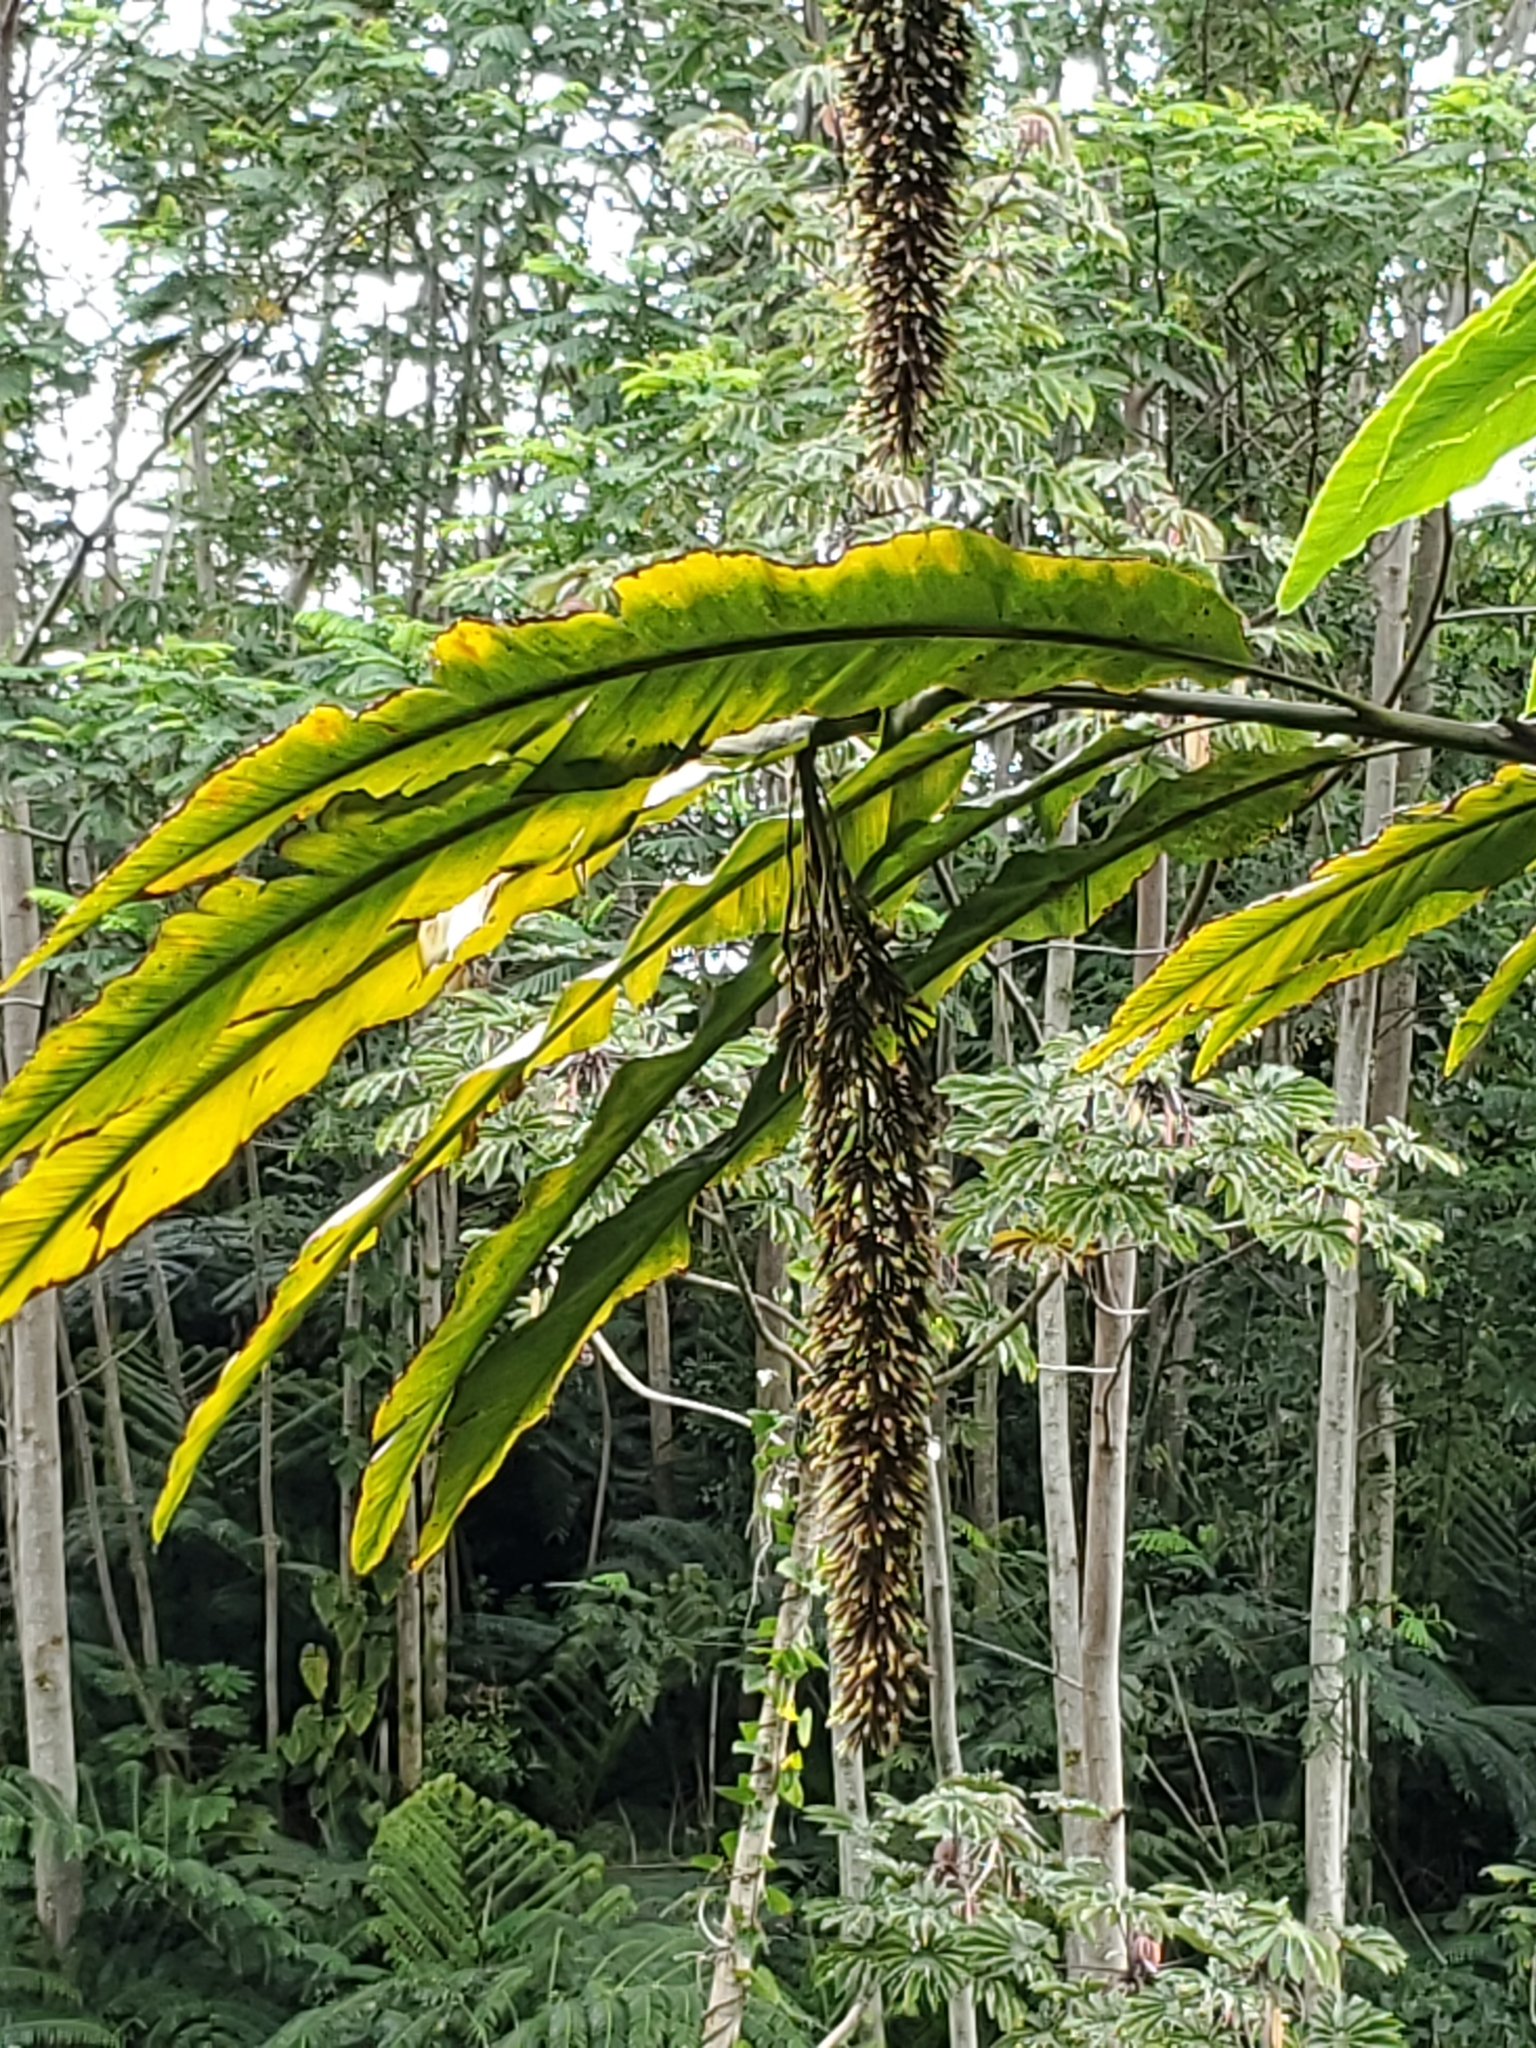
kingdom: Plantae
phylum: Tracheophyta
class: Liliopsida
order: Zingiberales
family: Zingiberaceae
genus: Alpinia
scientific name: Alpinia boia
